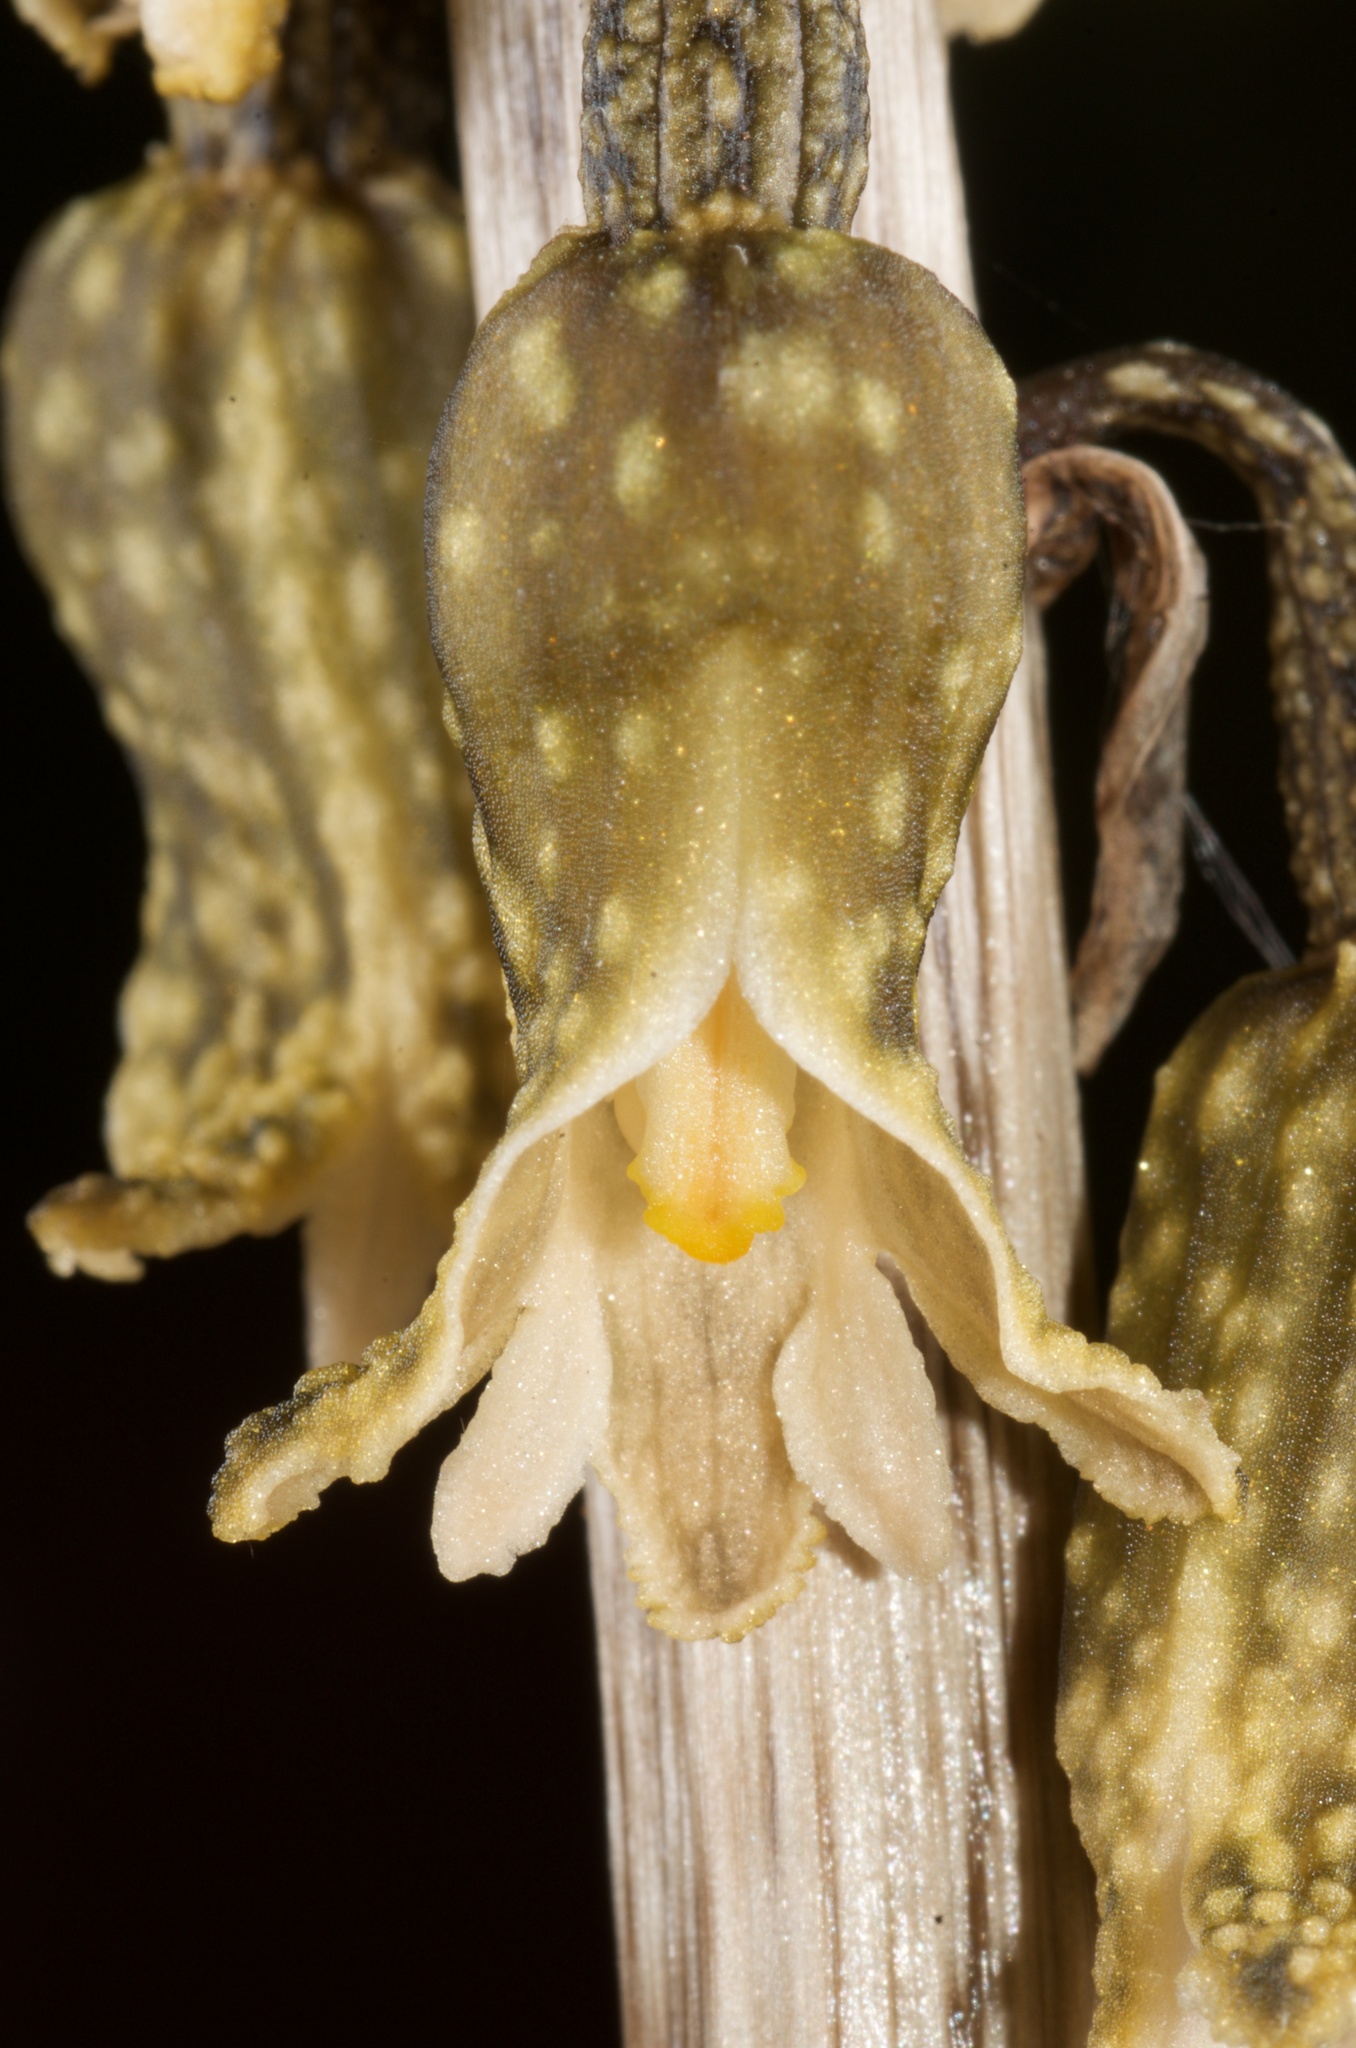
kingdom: Plantae
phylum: Tracheophyta
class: Liliopsida
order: Asparagales
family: Orchidaceae
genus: Gastrodia
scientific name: Gastrodia molloyi
